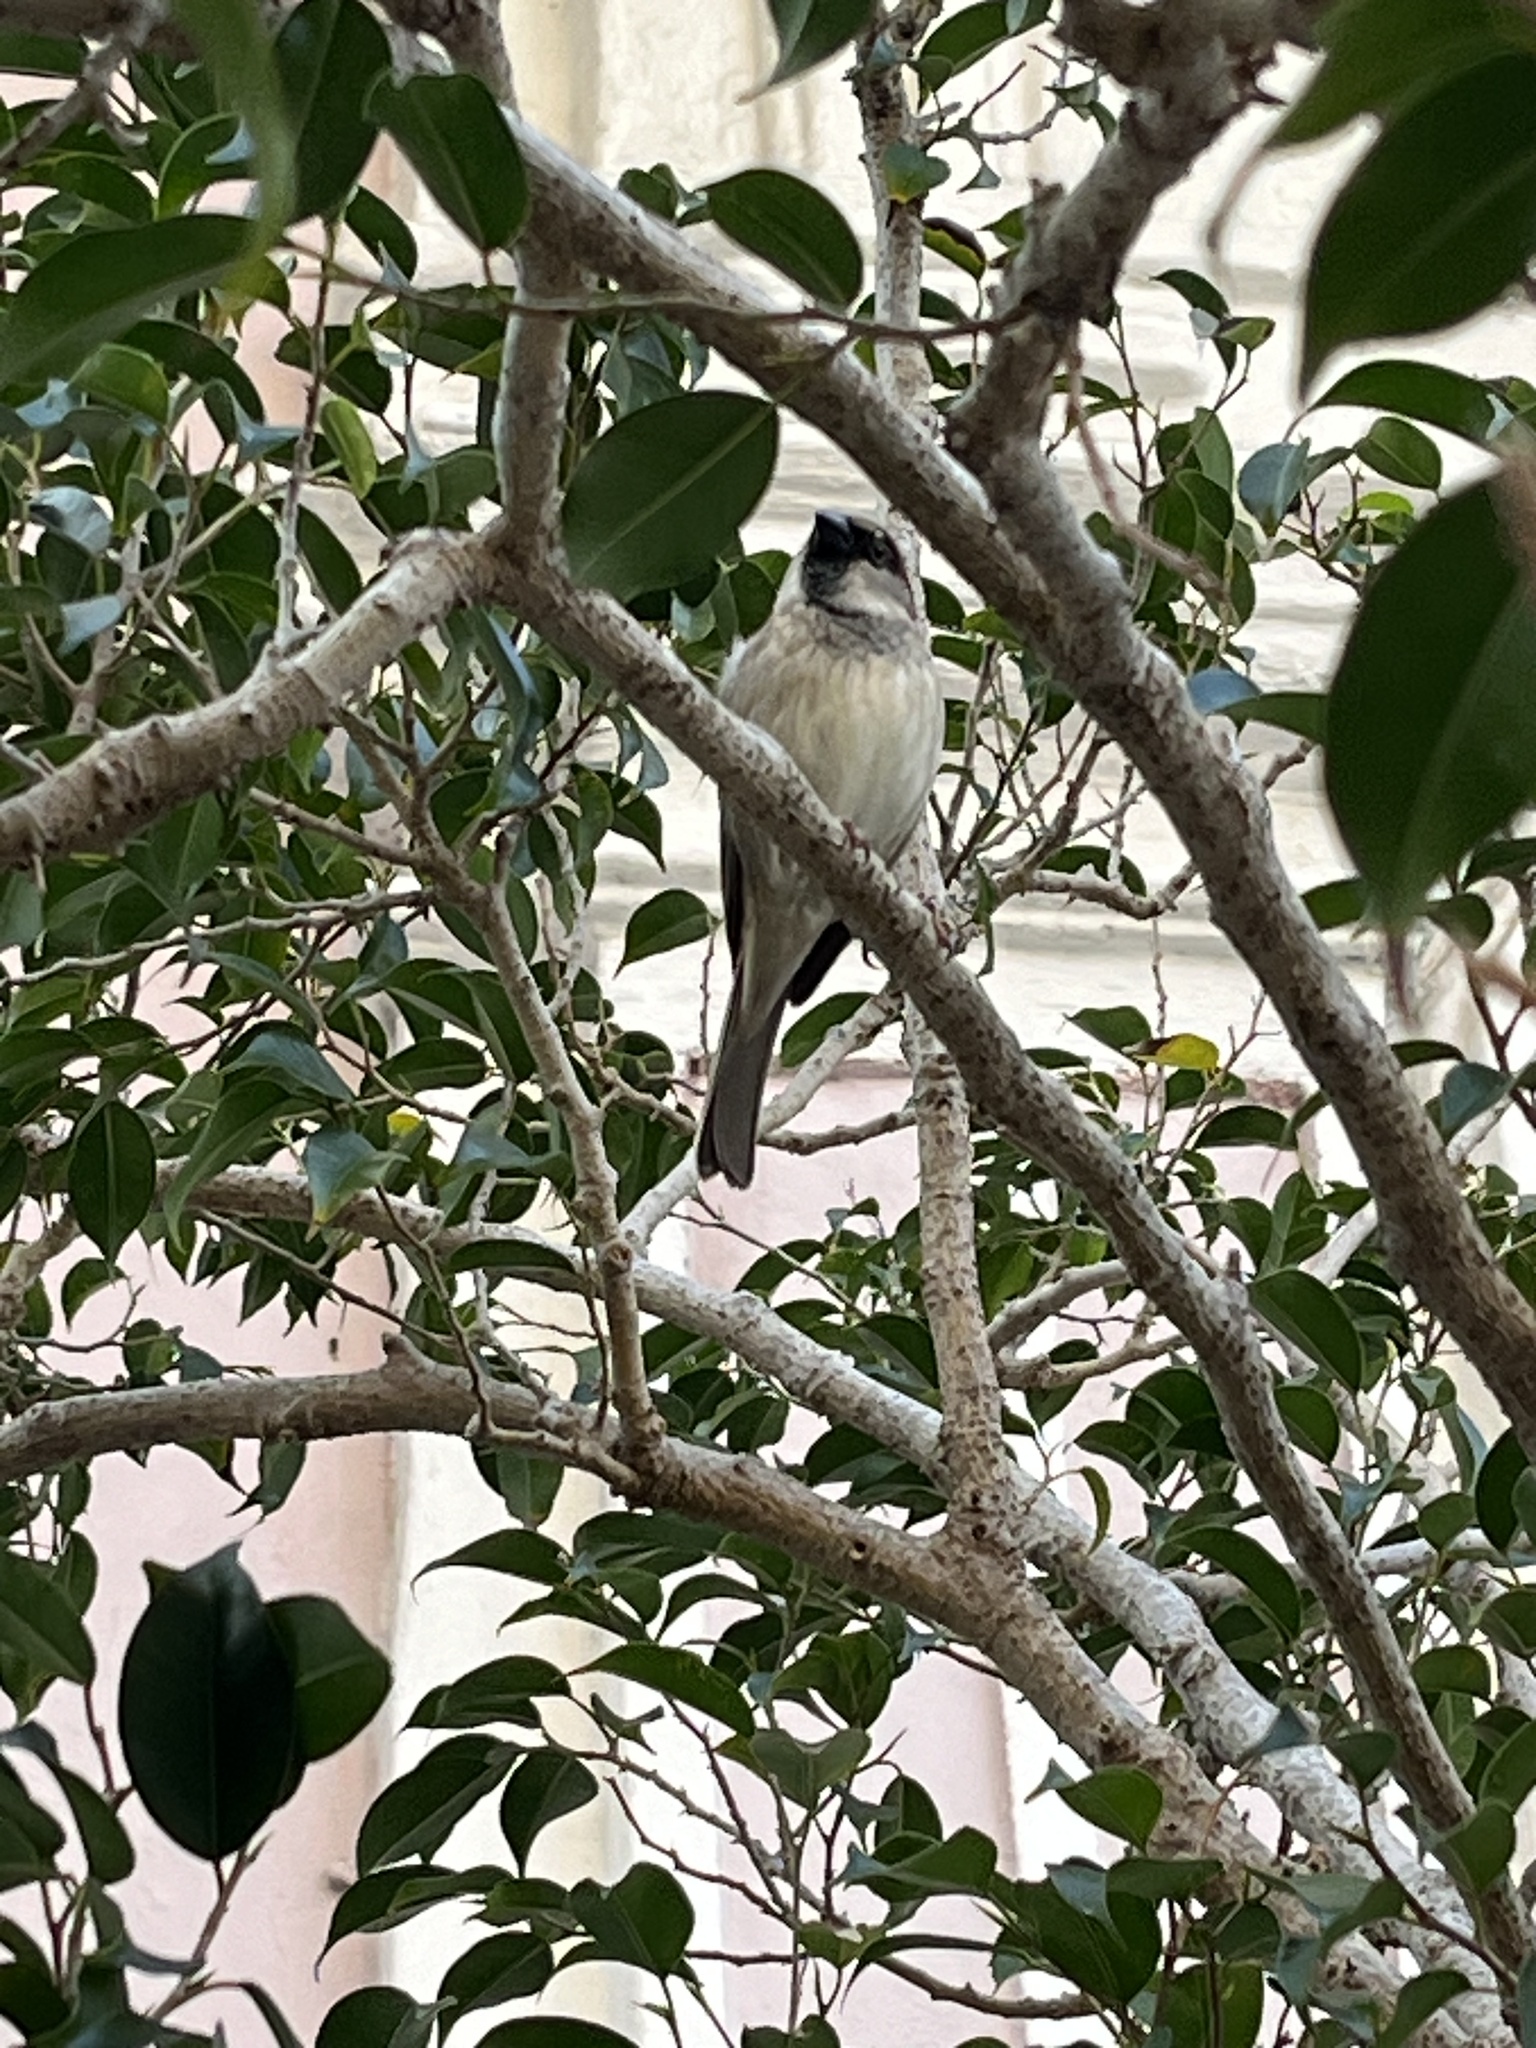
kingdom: Animalia
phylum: Chordata
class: Aves
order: Passeriformes
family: Passeridae
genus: Passer
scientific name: Passer domesticus
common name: House sparrow
